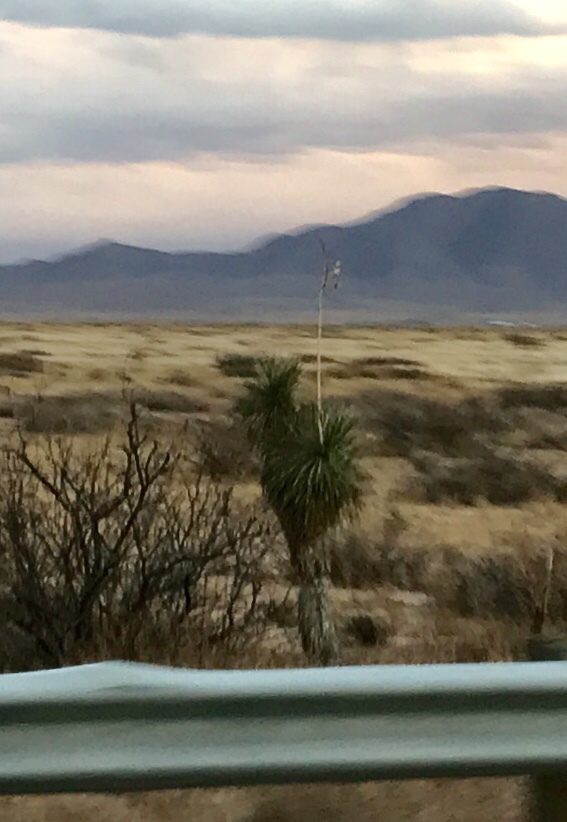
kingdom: Plantae
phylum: Tracheophyta
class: Liliopsida
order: Asparagales
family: Asparagaceae
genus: Yucca
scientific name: Yucca elata
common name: Palmella
